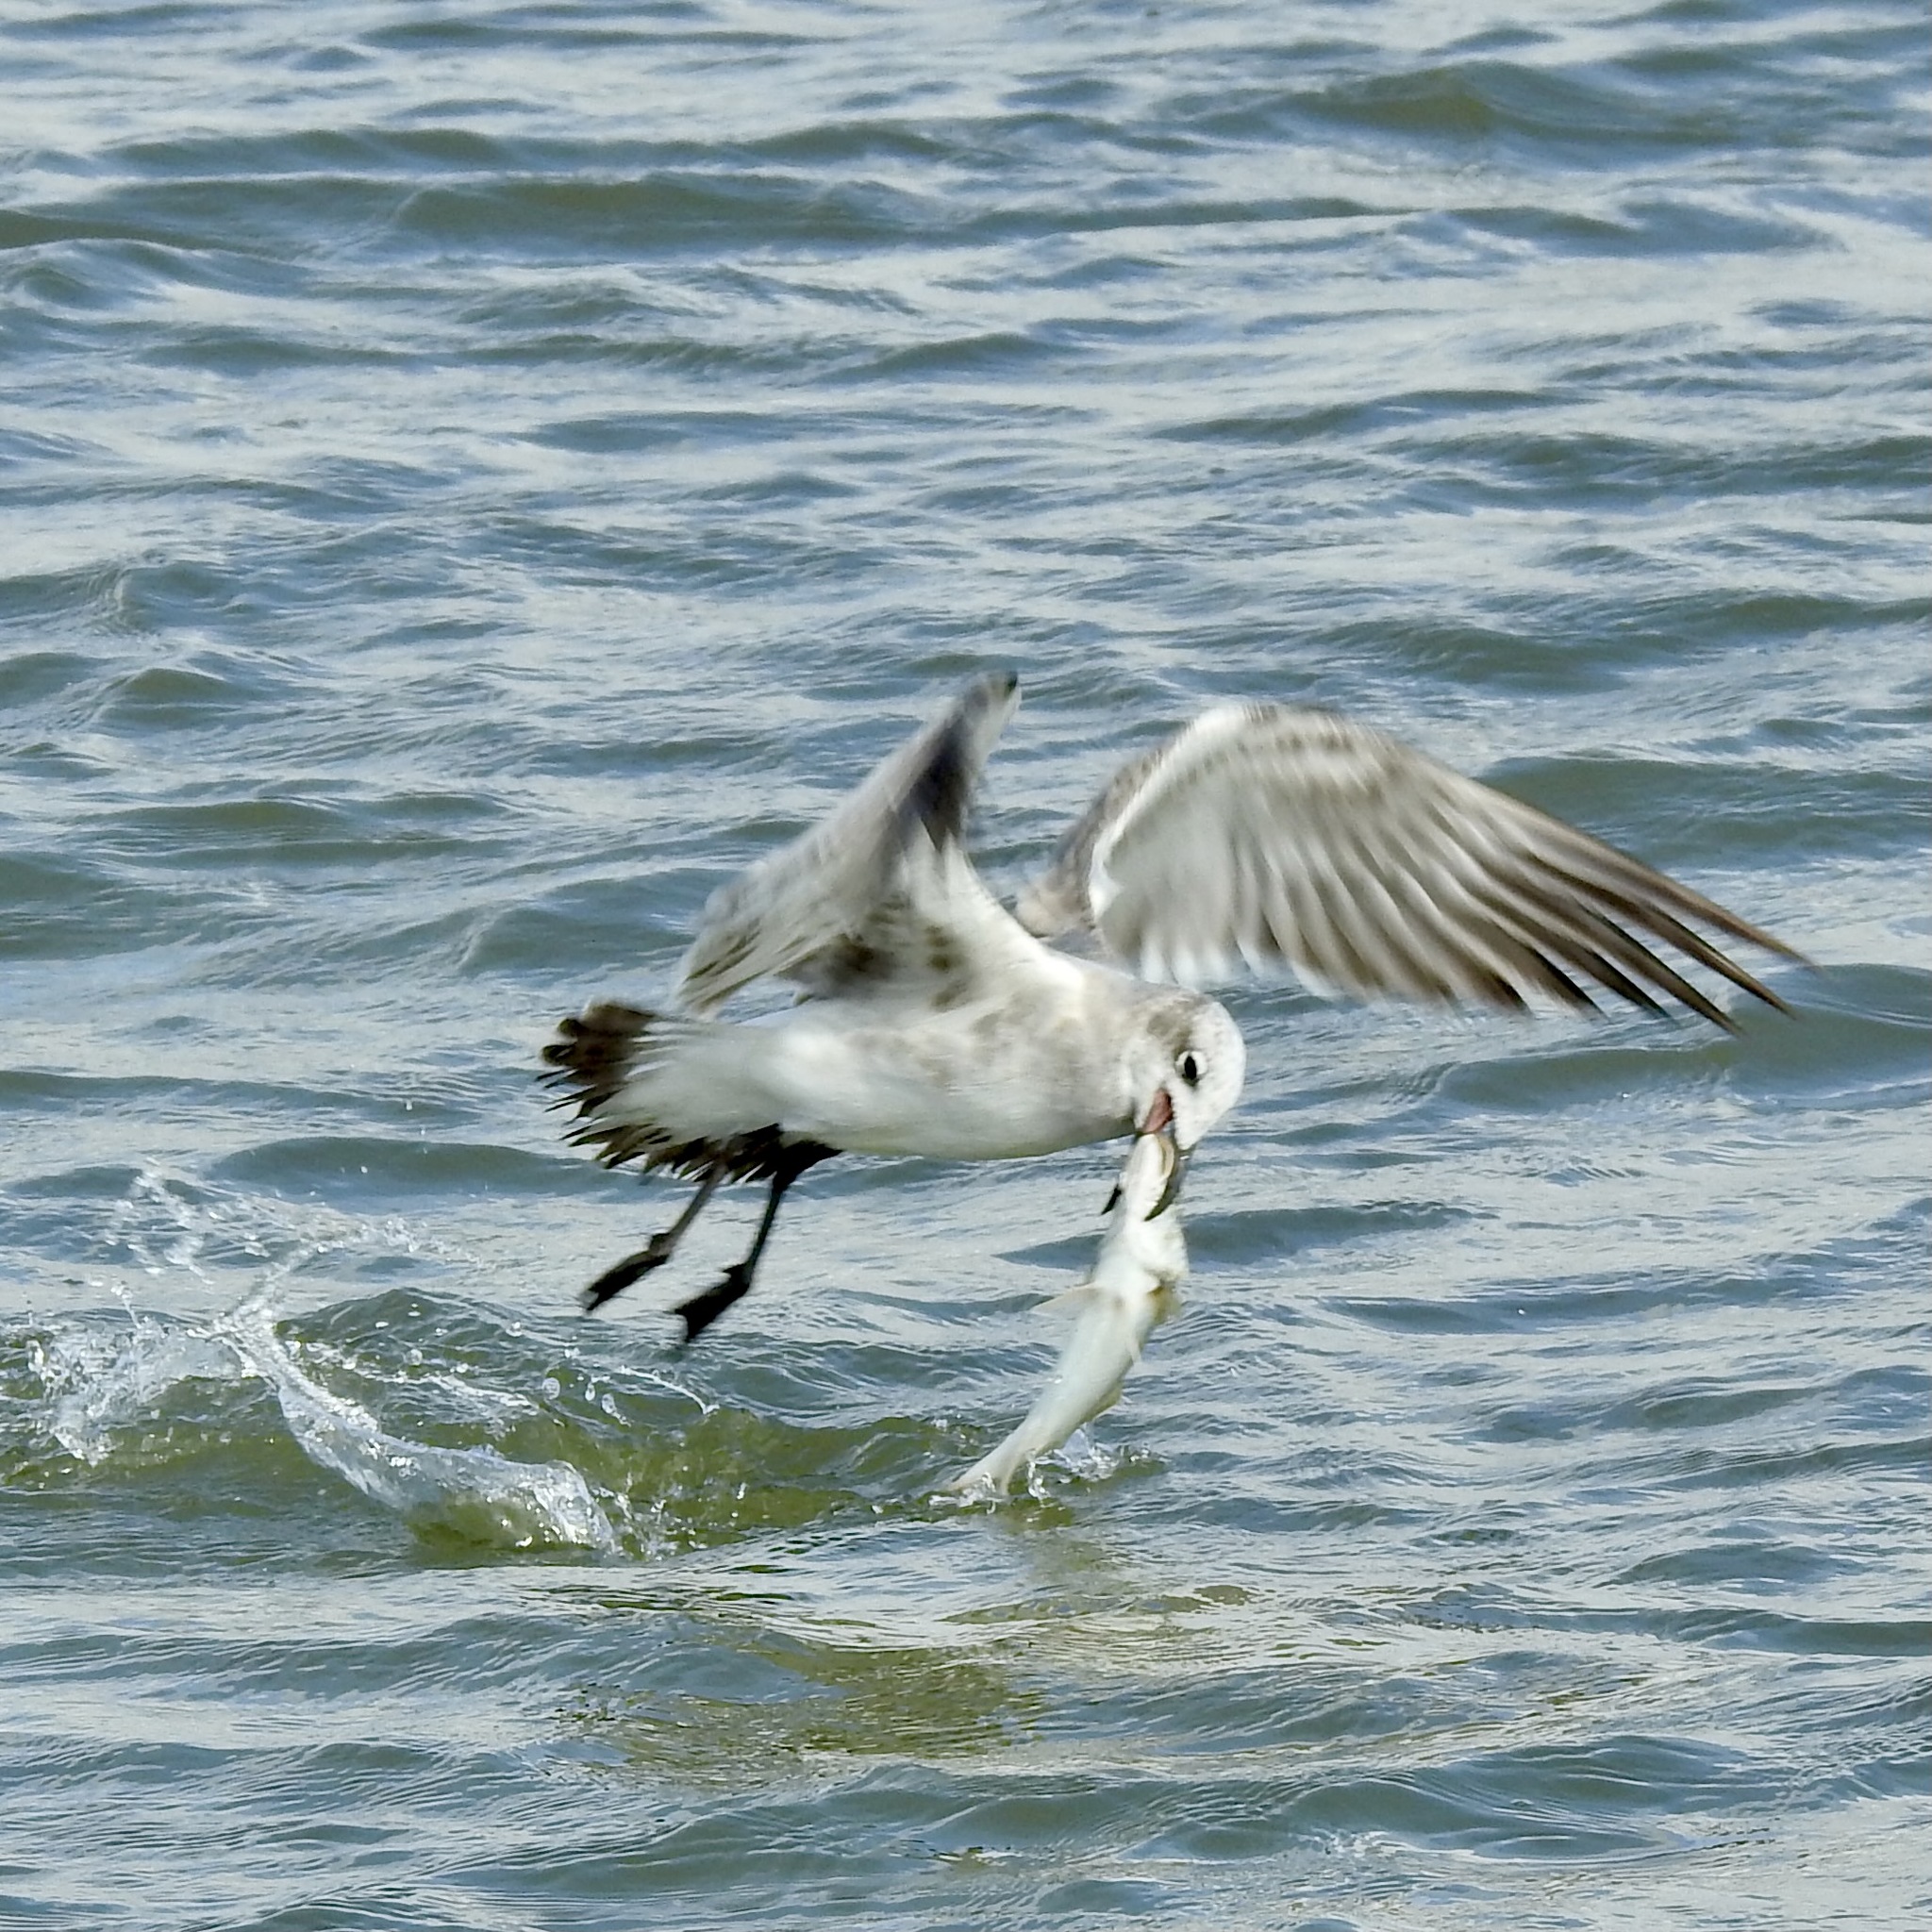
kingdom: Animalia
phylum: Chordata
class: Aves
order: Charadriiformes
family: Laridae
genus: Leucophaeus
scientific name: Leucophaeus atricilla
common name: Laughing gull
